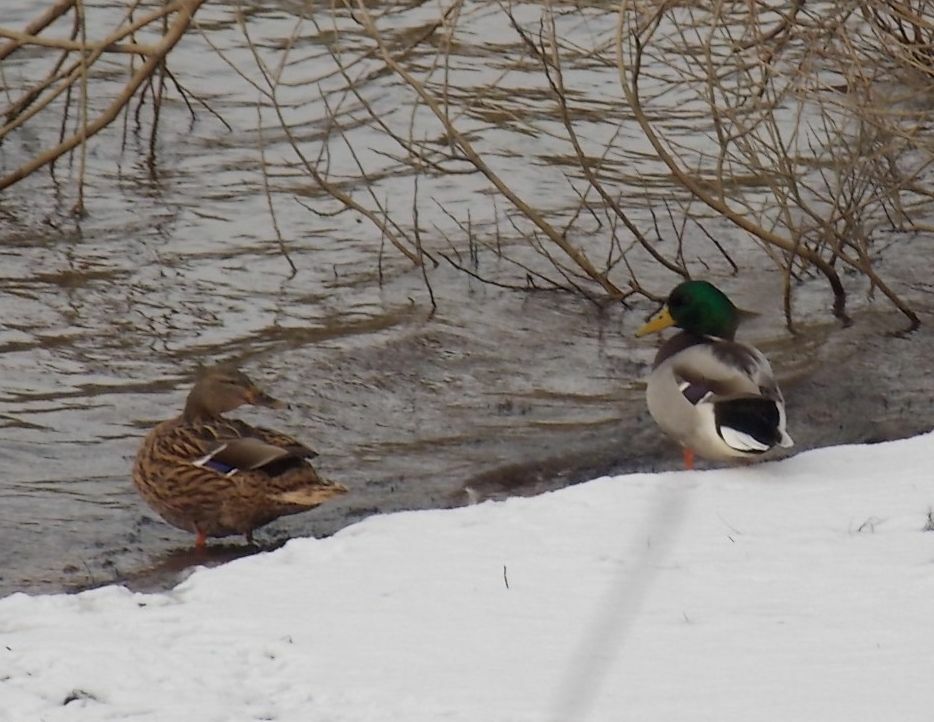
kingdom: Animalia
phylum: Chordata
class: Aves
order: Anseriformes
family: Anatidae
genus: Anas
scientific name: Anas platyrhynchos
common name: Mallard
